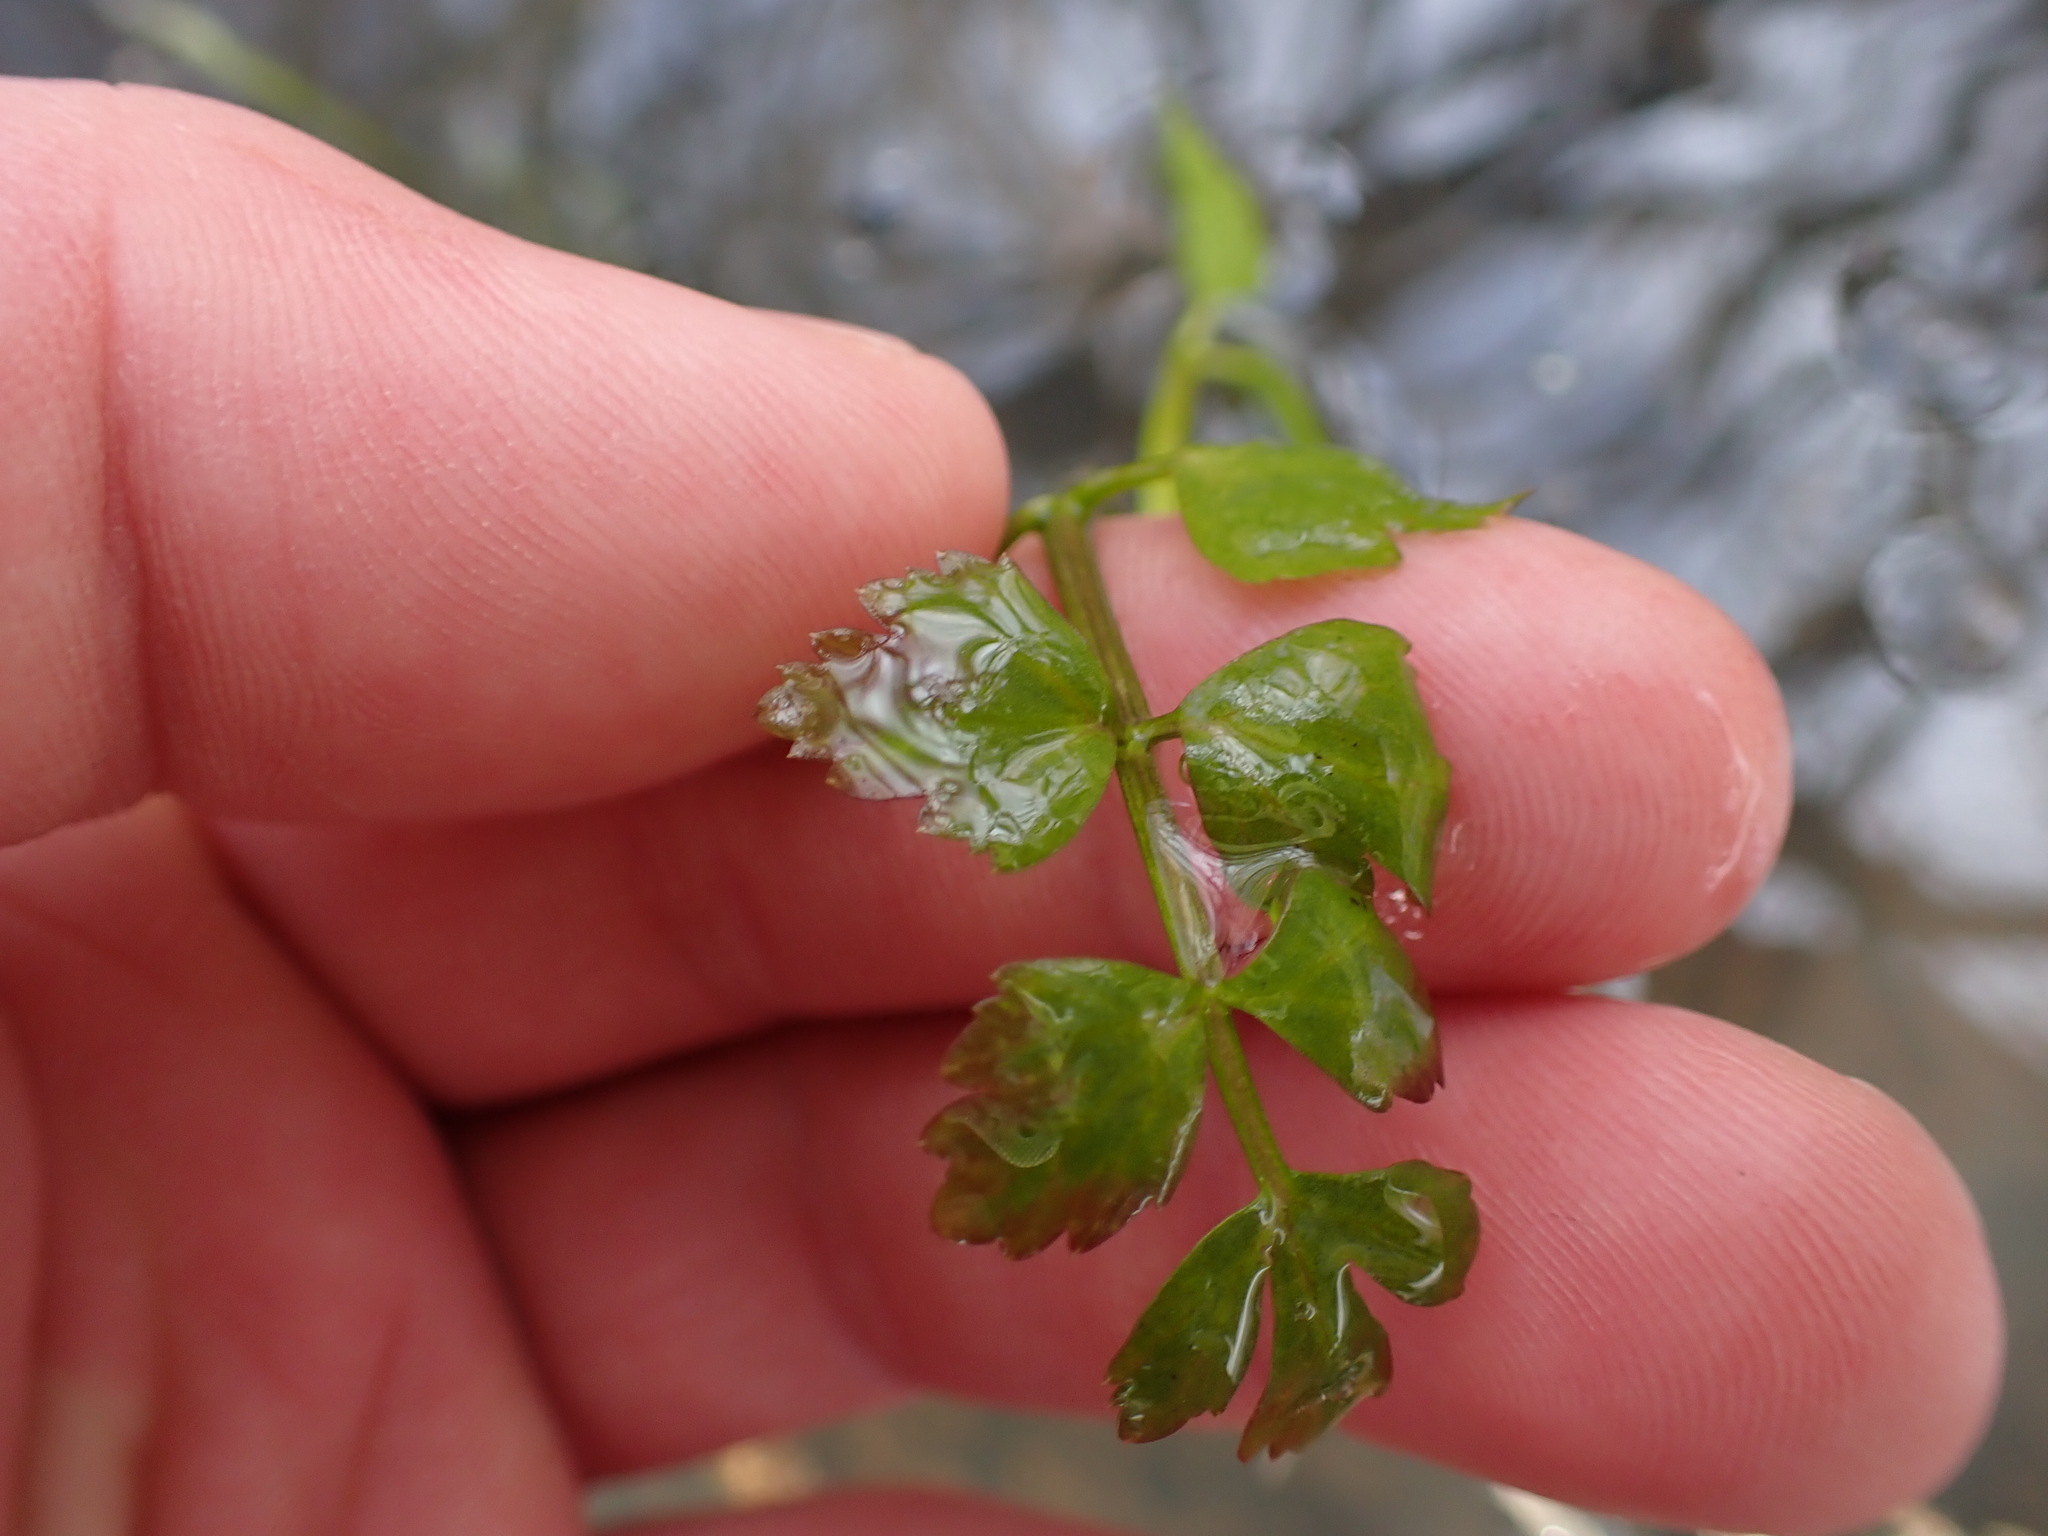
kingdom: Plantae
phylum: Tracheophyta
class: Magnoliopsida
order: Apiales
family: Apiaceae
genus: Oenanthe
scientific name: Oenanthe sarmentosa
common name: American water-parsley
